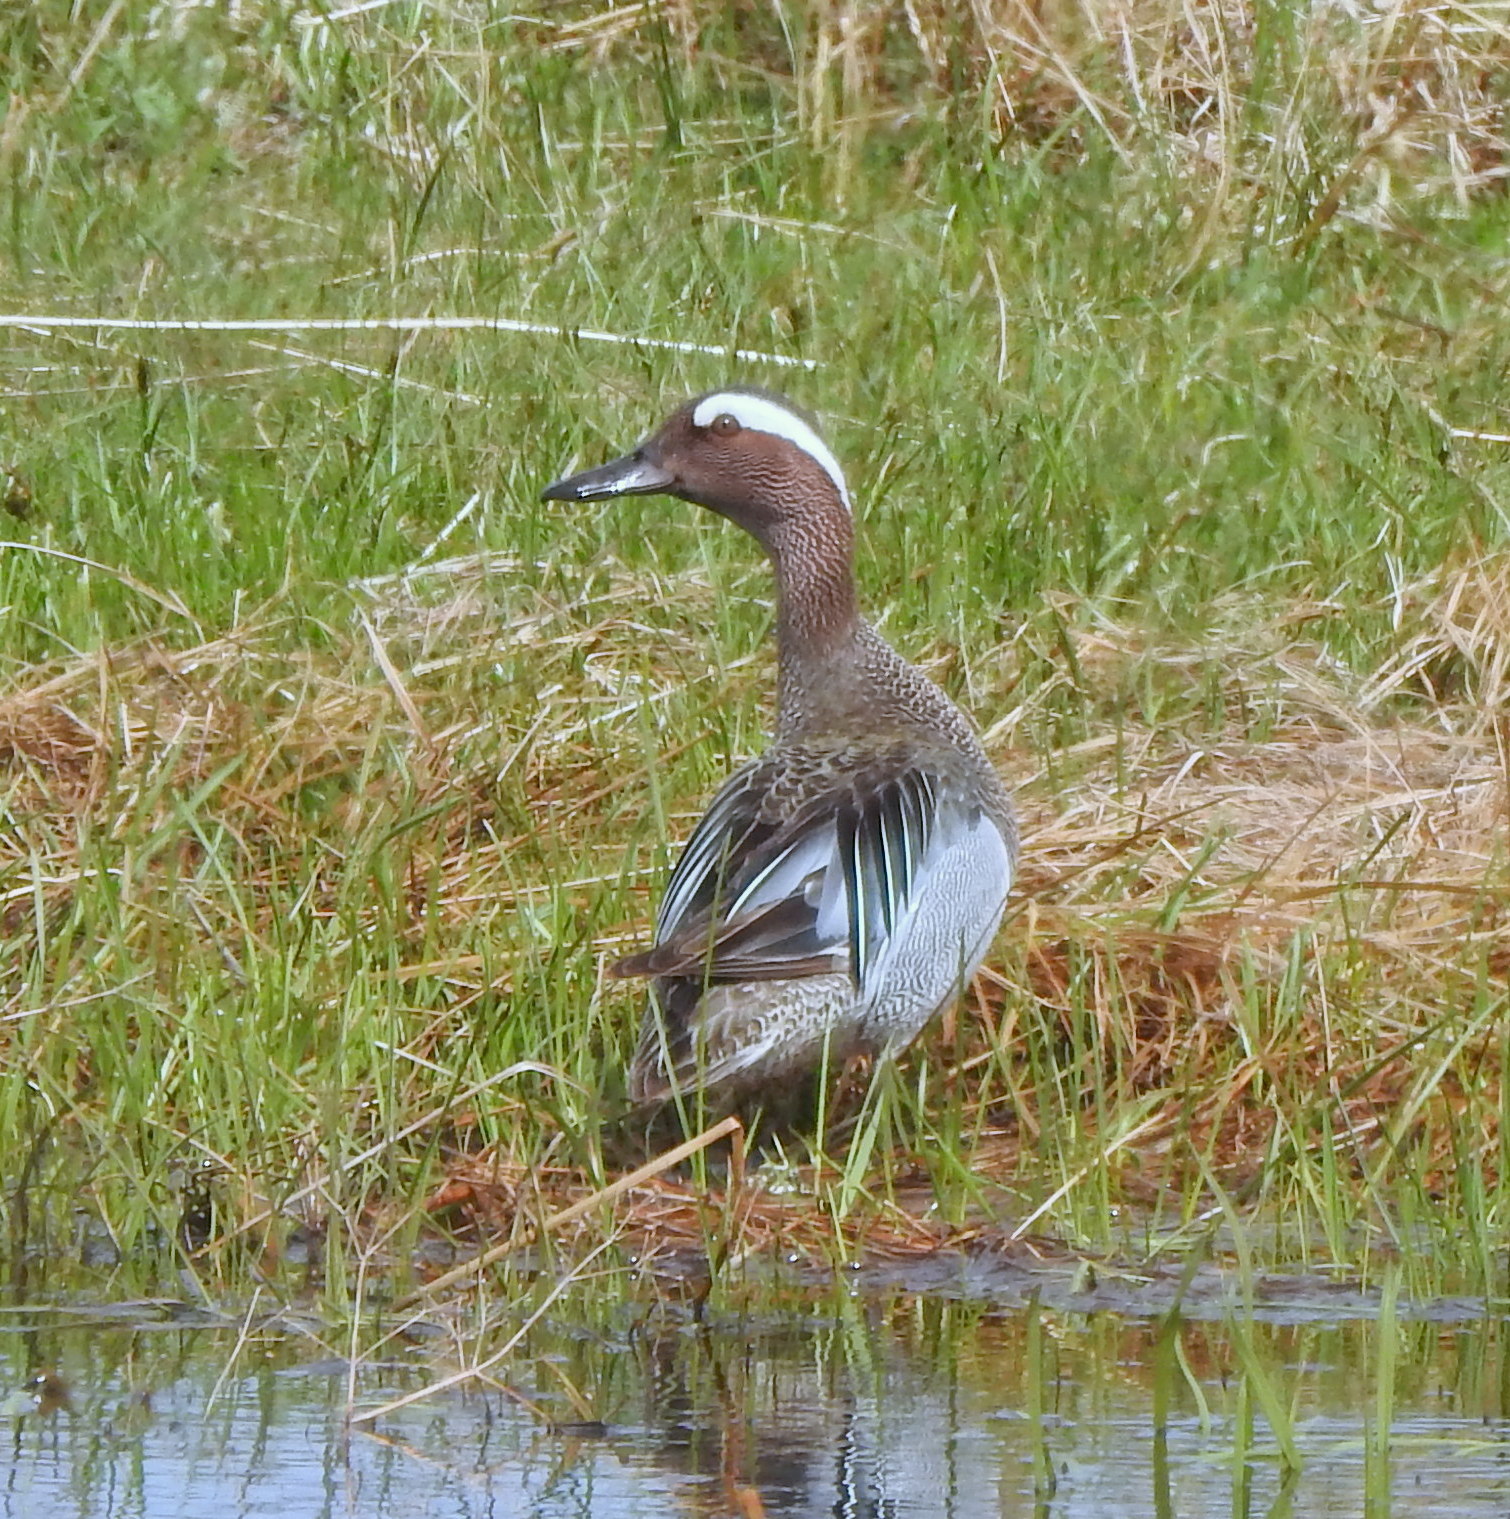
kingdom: Animalia
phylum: Chordata
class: Aves
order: Anseriformes
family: Anatidae
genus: Spatula
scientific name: Spatula querquedula
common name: Garganey
